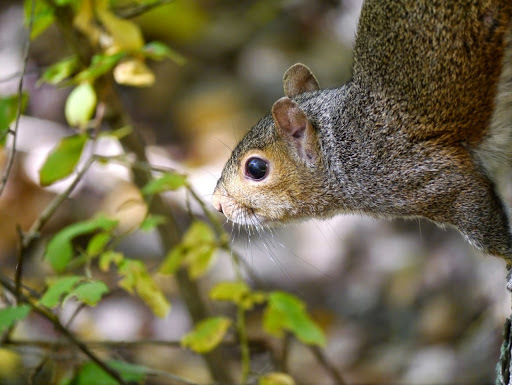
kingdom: Animalia
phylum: Chordata
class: Mammalia
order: Rodentia
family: Sciuridae
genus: Sciurus
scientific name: Sciurus carolinensis
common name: Eastern gray squirrel
